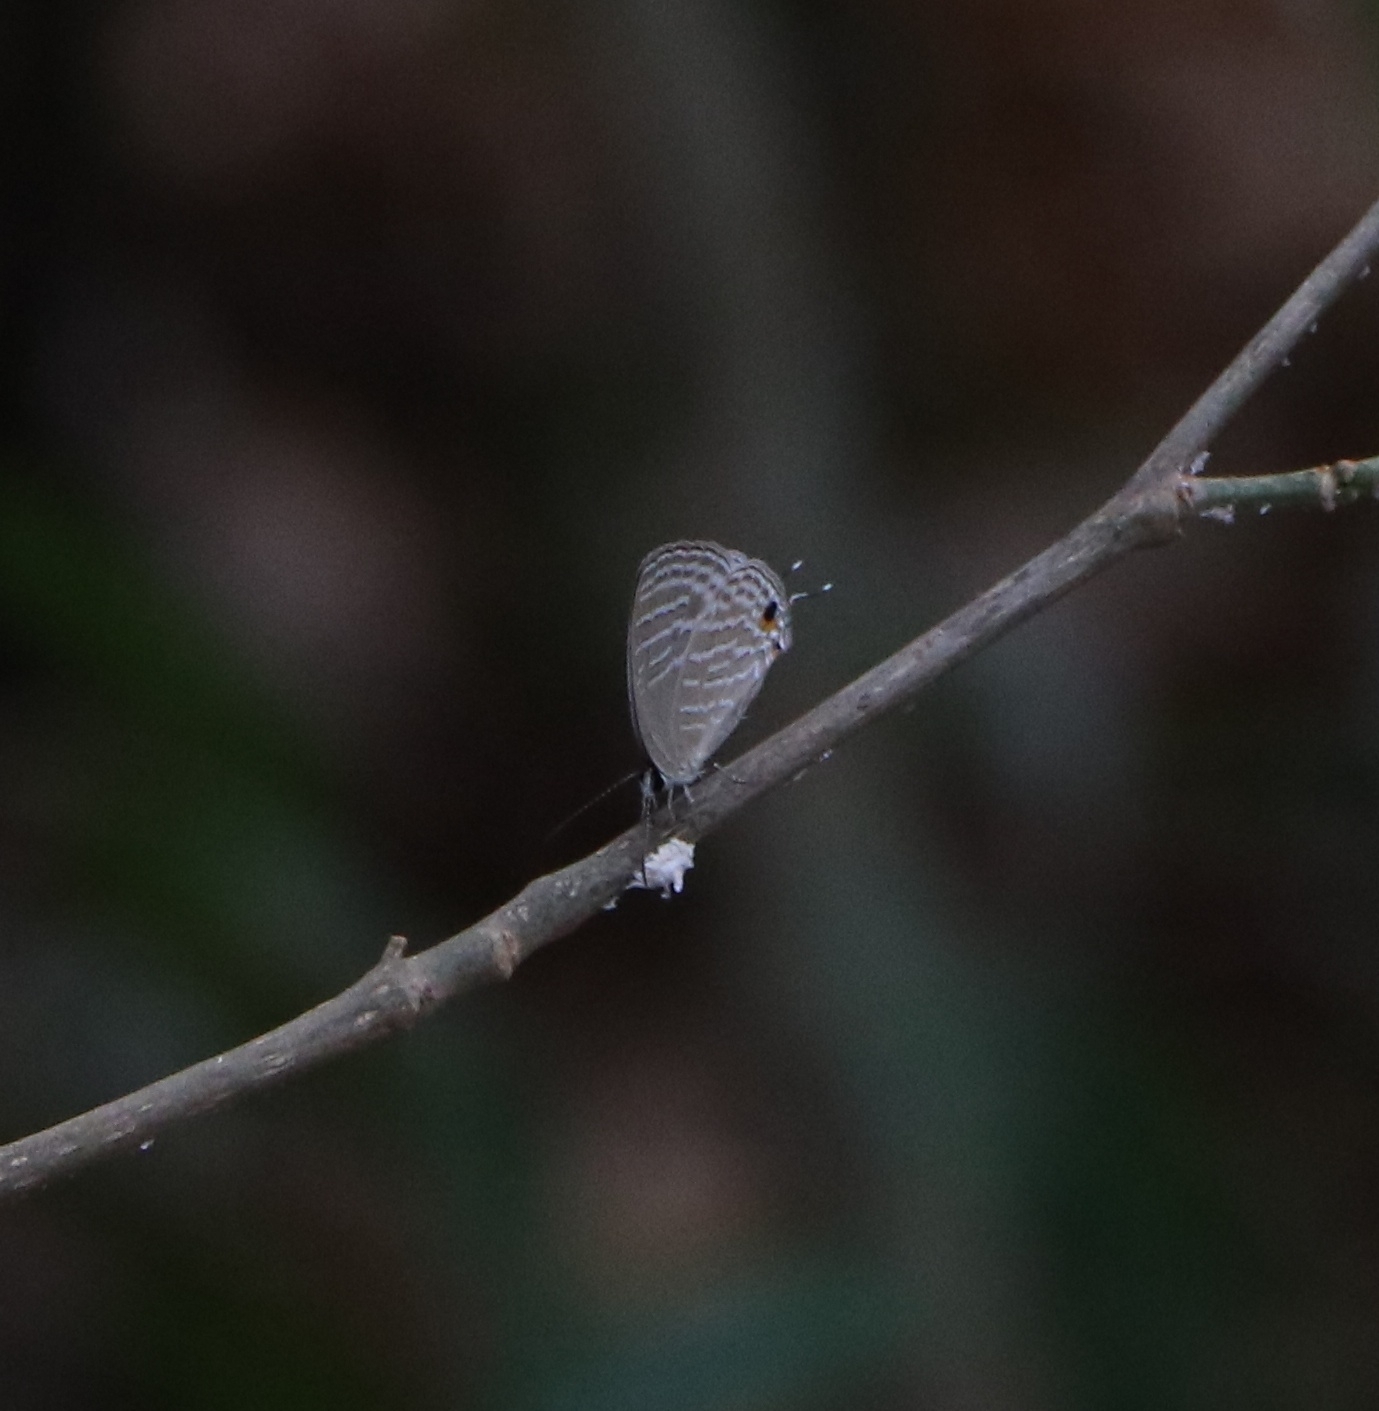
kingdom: Animalia
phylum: Arthropoda
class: Insecta
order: Lepidoptera
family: Lycaenidae
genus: Jamides
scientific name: Jamides celeno
